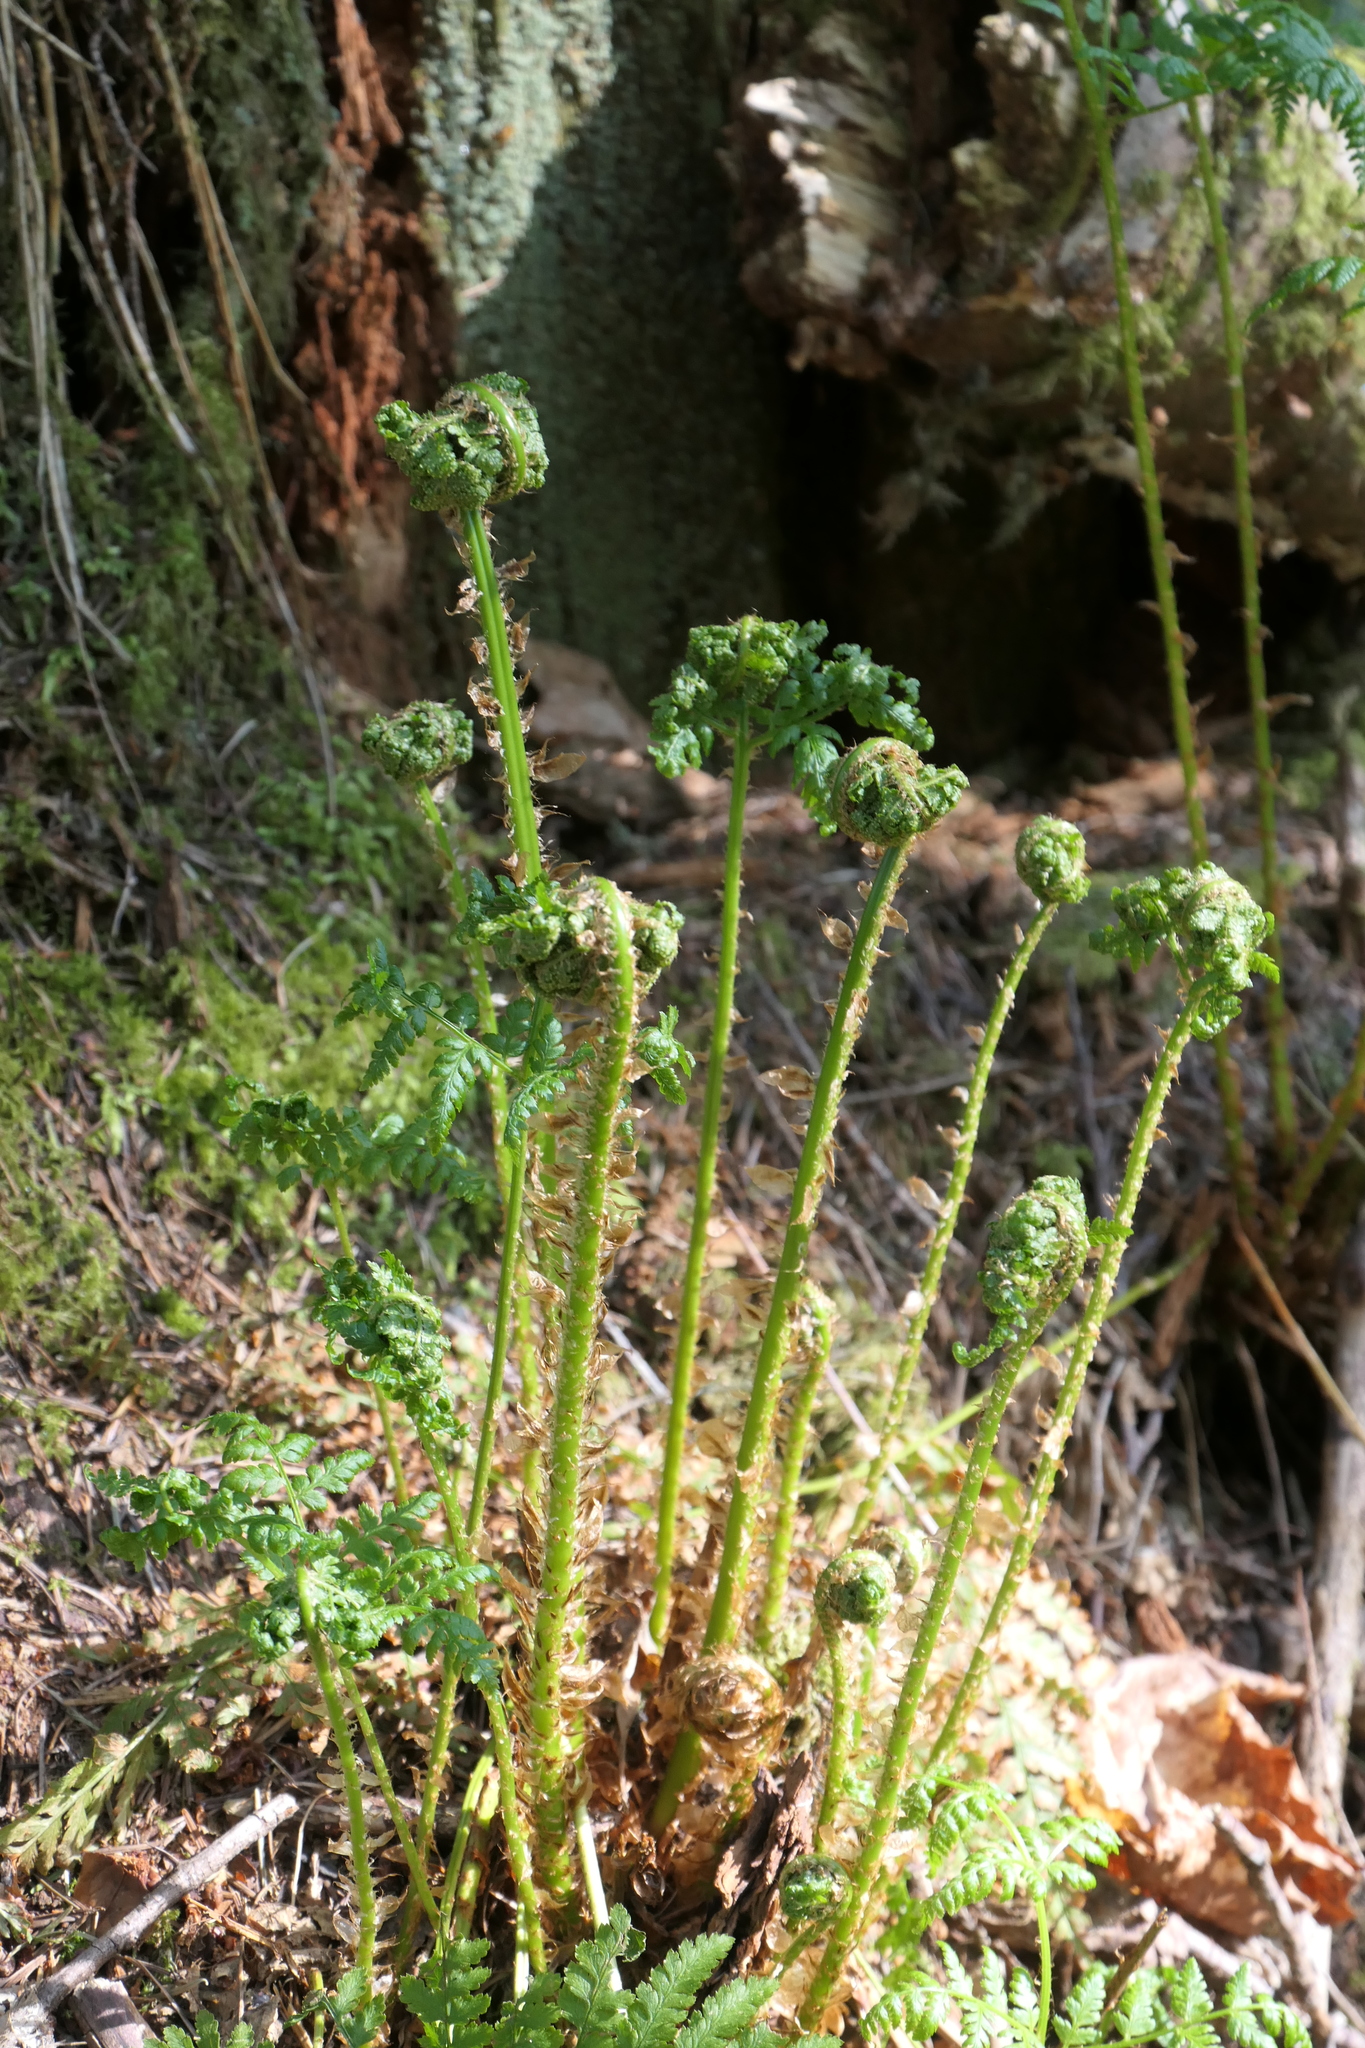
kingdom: Plantae
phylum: Tracheophyta
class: Polypodiopsida
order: Polypodiales
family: Dryopteridaceae
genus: Dryopteris
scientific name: Dryopteris expansa
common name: Northern buckler fern
